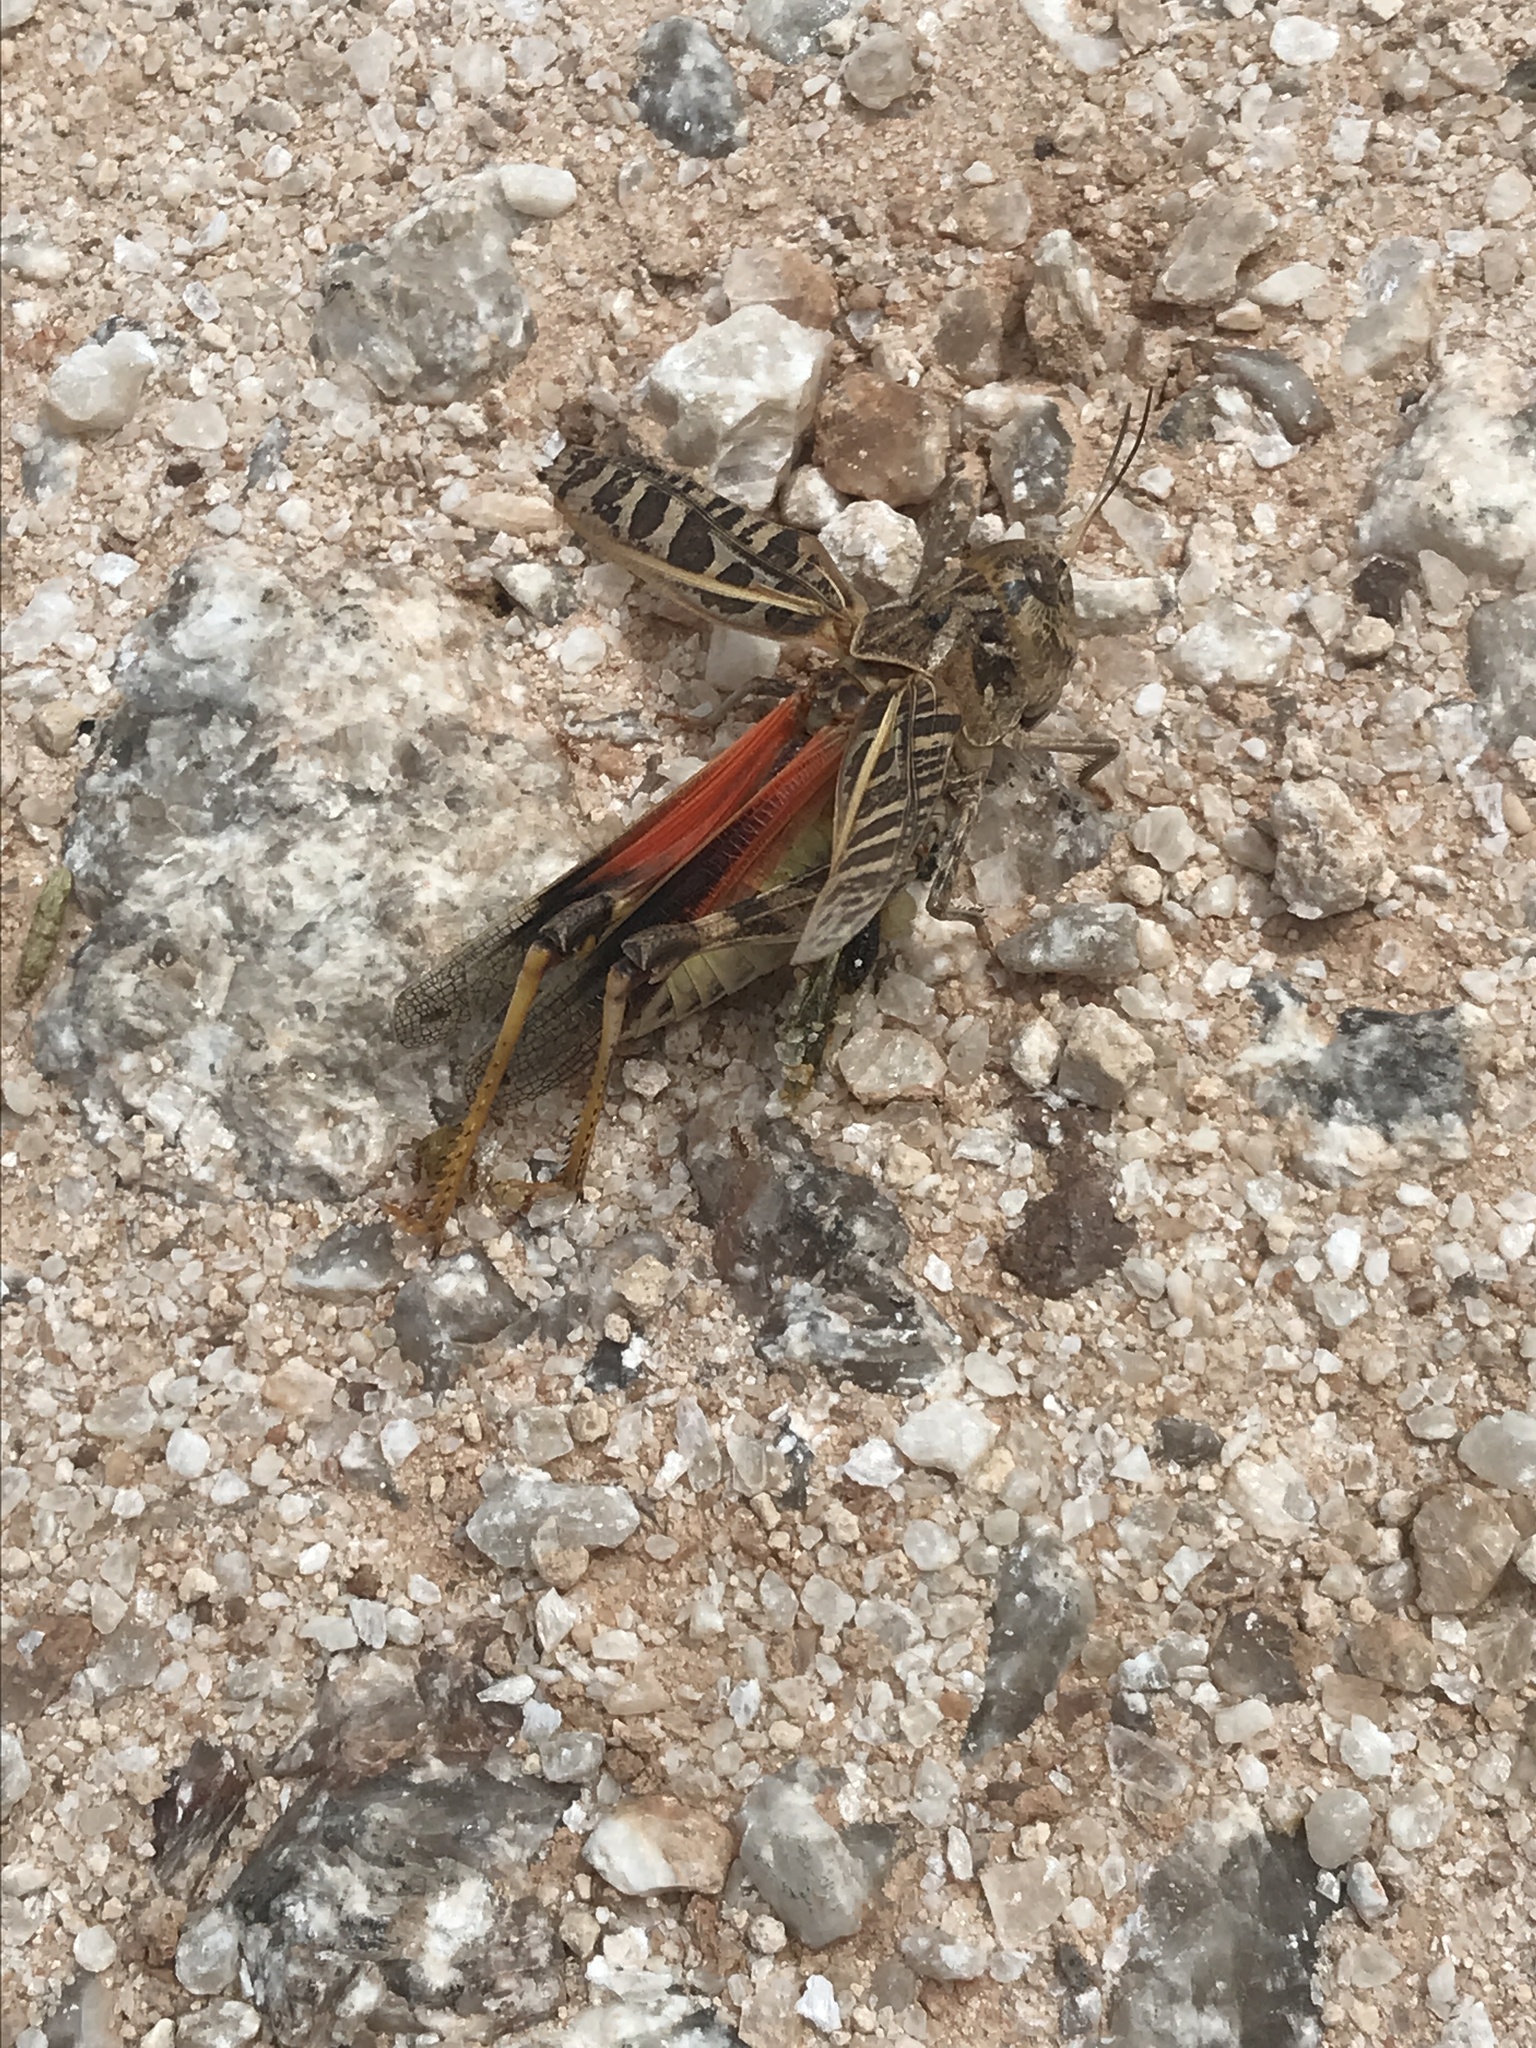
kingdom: Animalia
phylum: Arthropoda
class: Insecta
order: Orthoptera
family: Acrididae
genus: Hippiscus
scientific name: Hippiscus ocelote
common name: Wrinkled grasshopper
